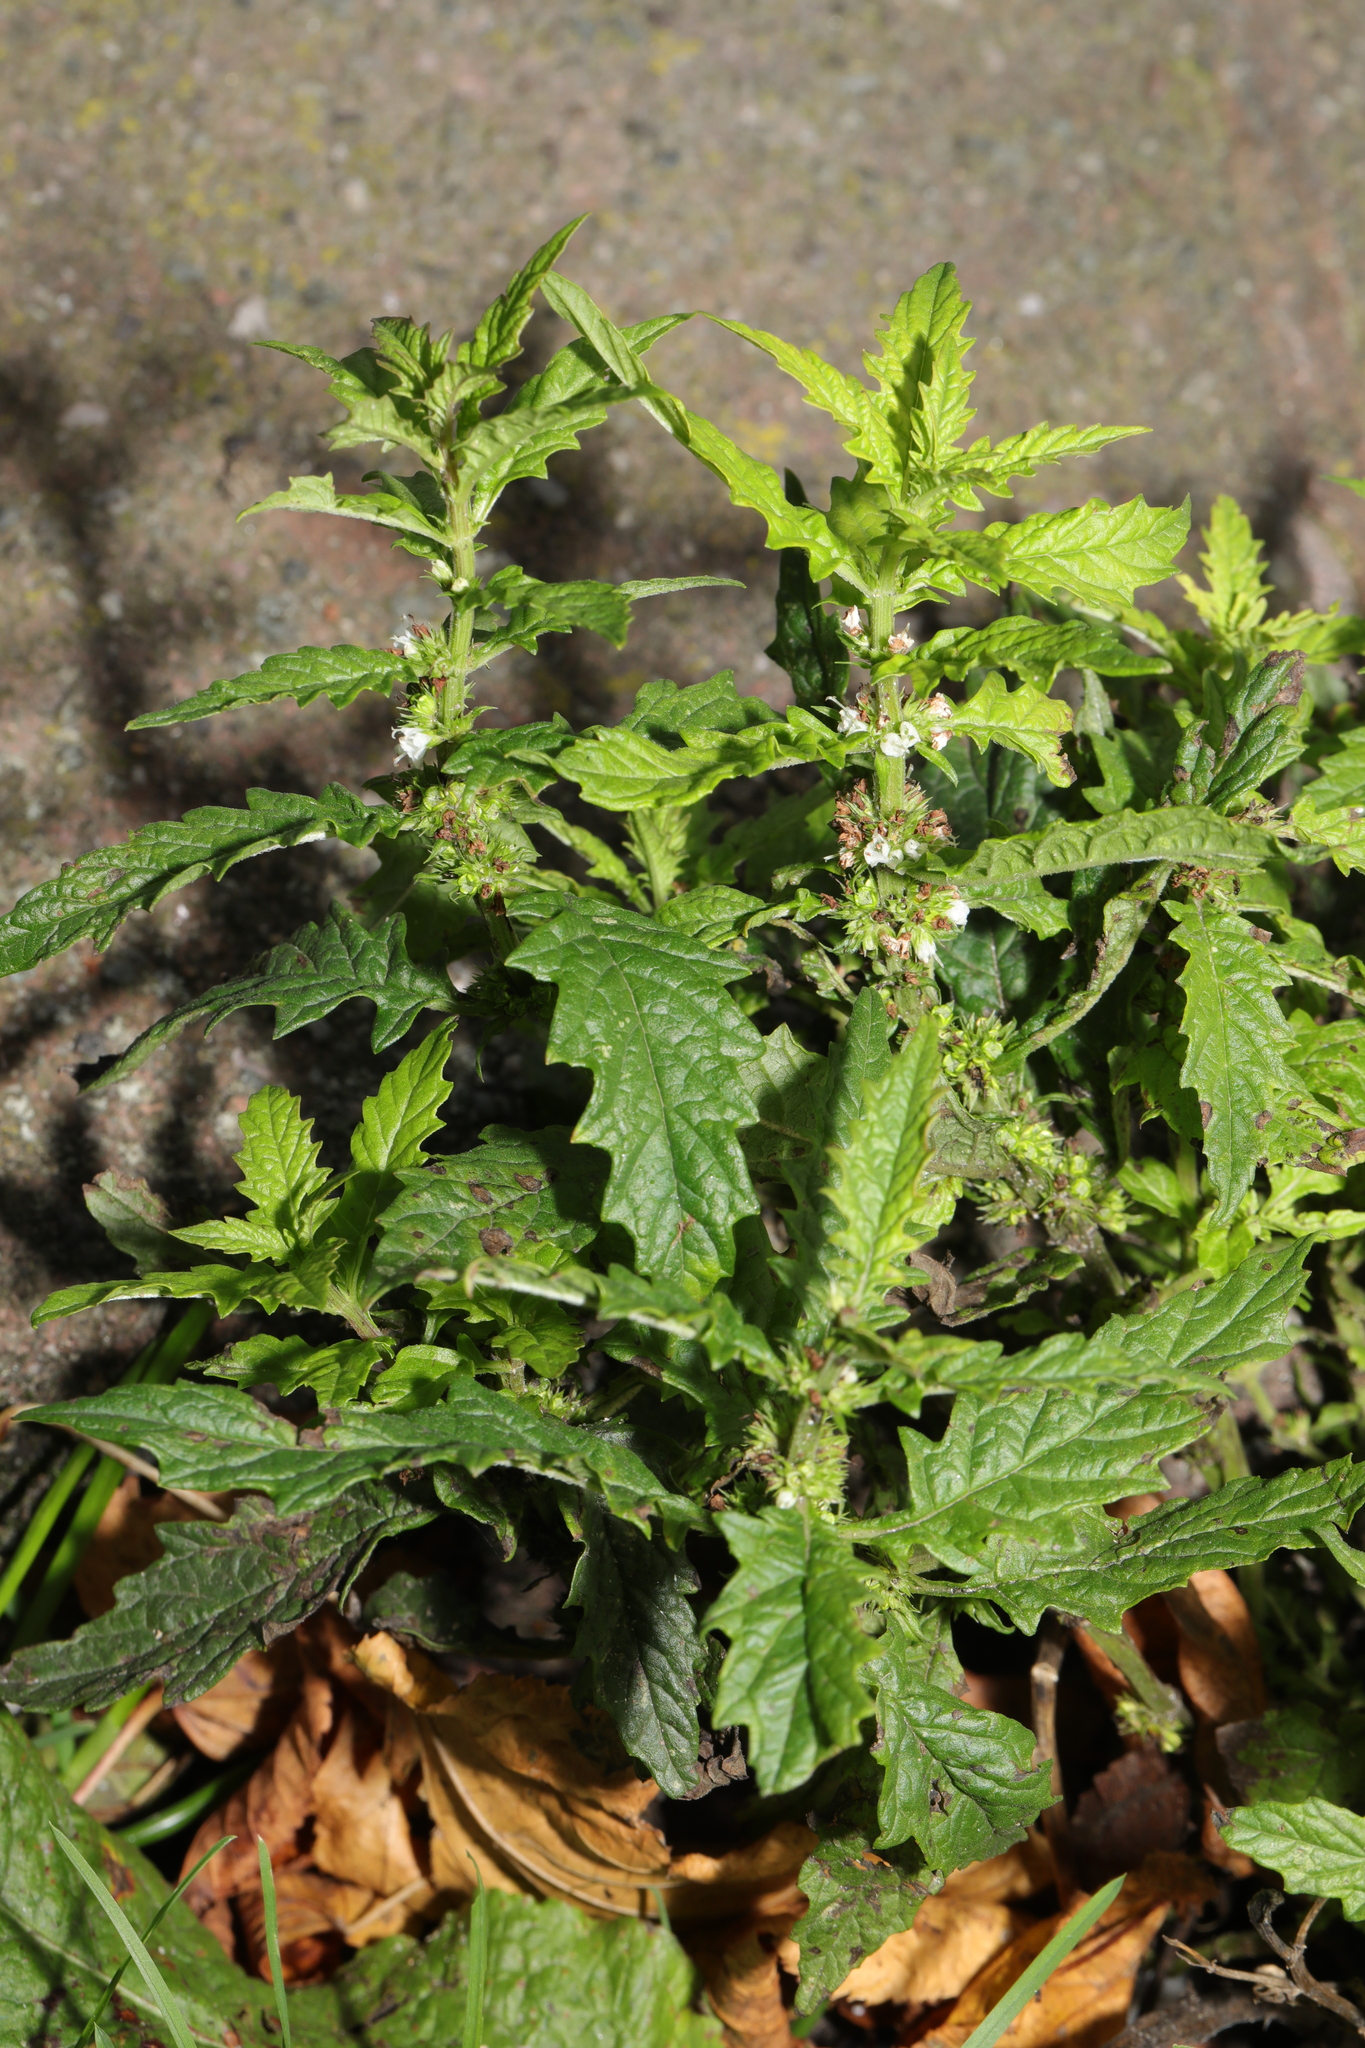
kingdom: Plantae
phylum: Tracheophyta
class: Magnoliopsida
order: Lamiales
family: Lamiaceae
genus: Lycopus
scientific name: Lycopus europaeus
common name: European bugleweed
